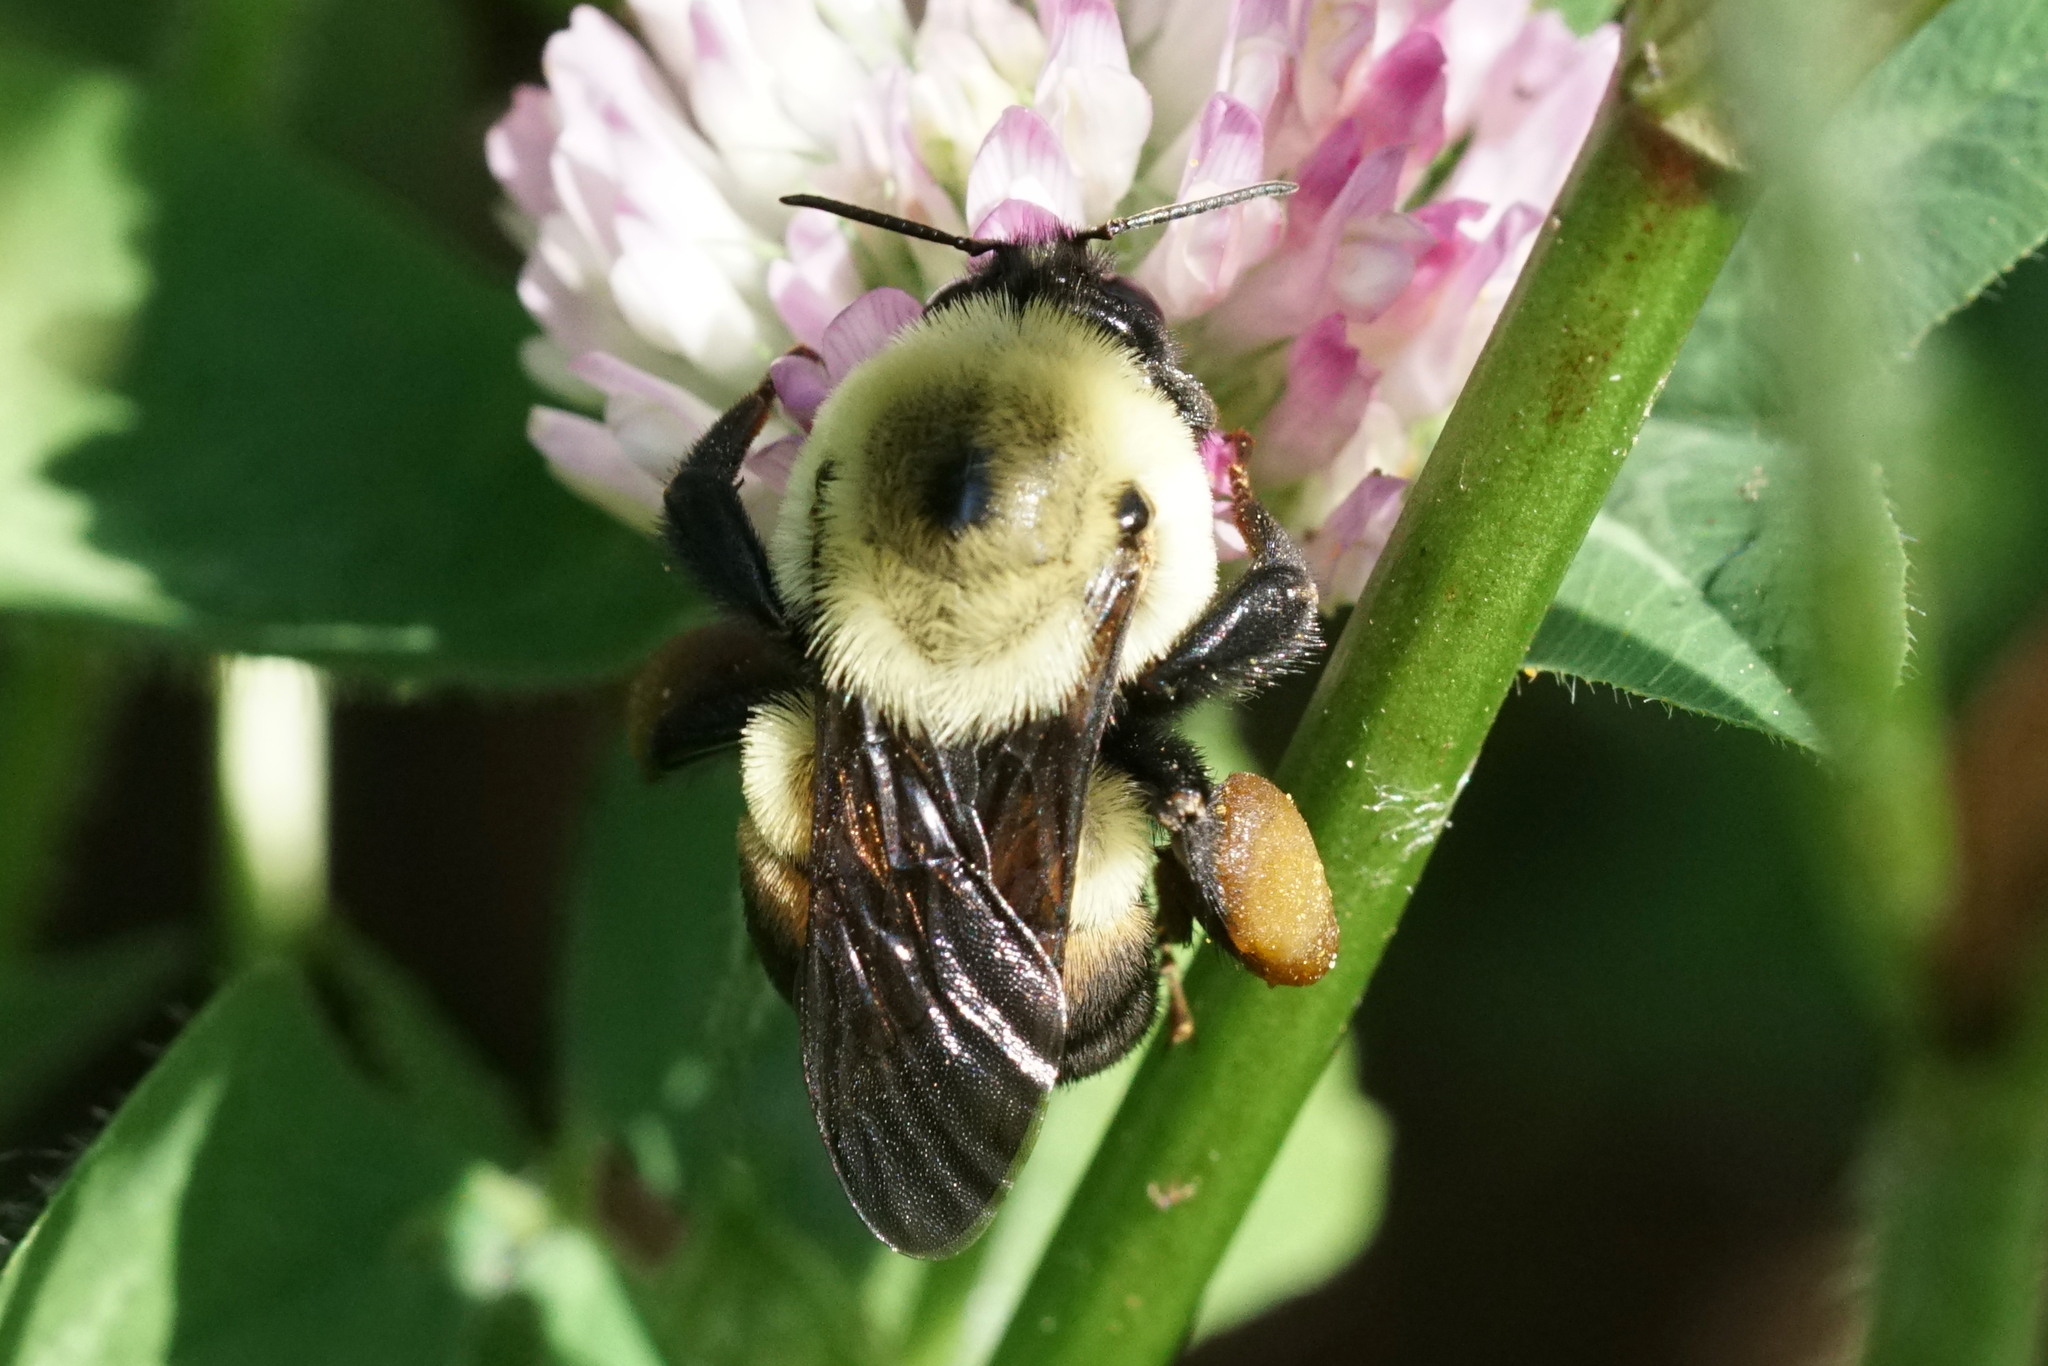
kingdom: Animalia
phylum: Arthropoda
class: Insecta
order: Hymenoptera
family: Apidae
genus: Bombus
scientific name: Bombus griseocollis
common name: Brown-belted bumble bee
